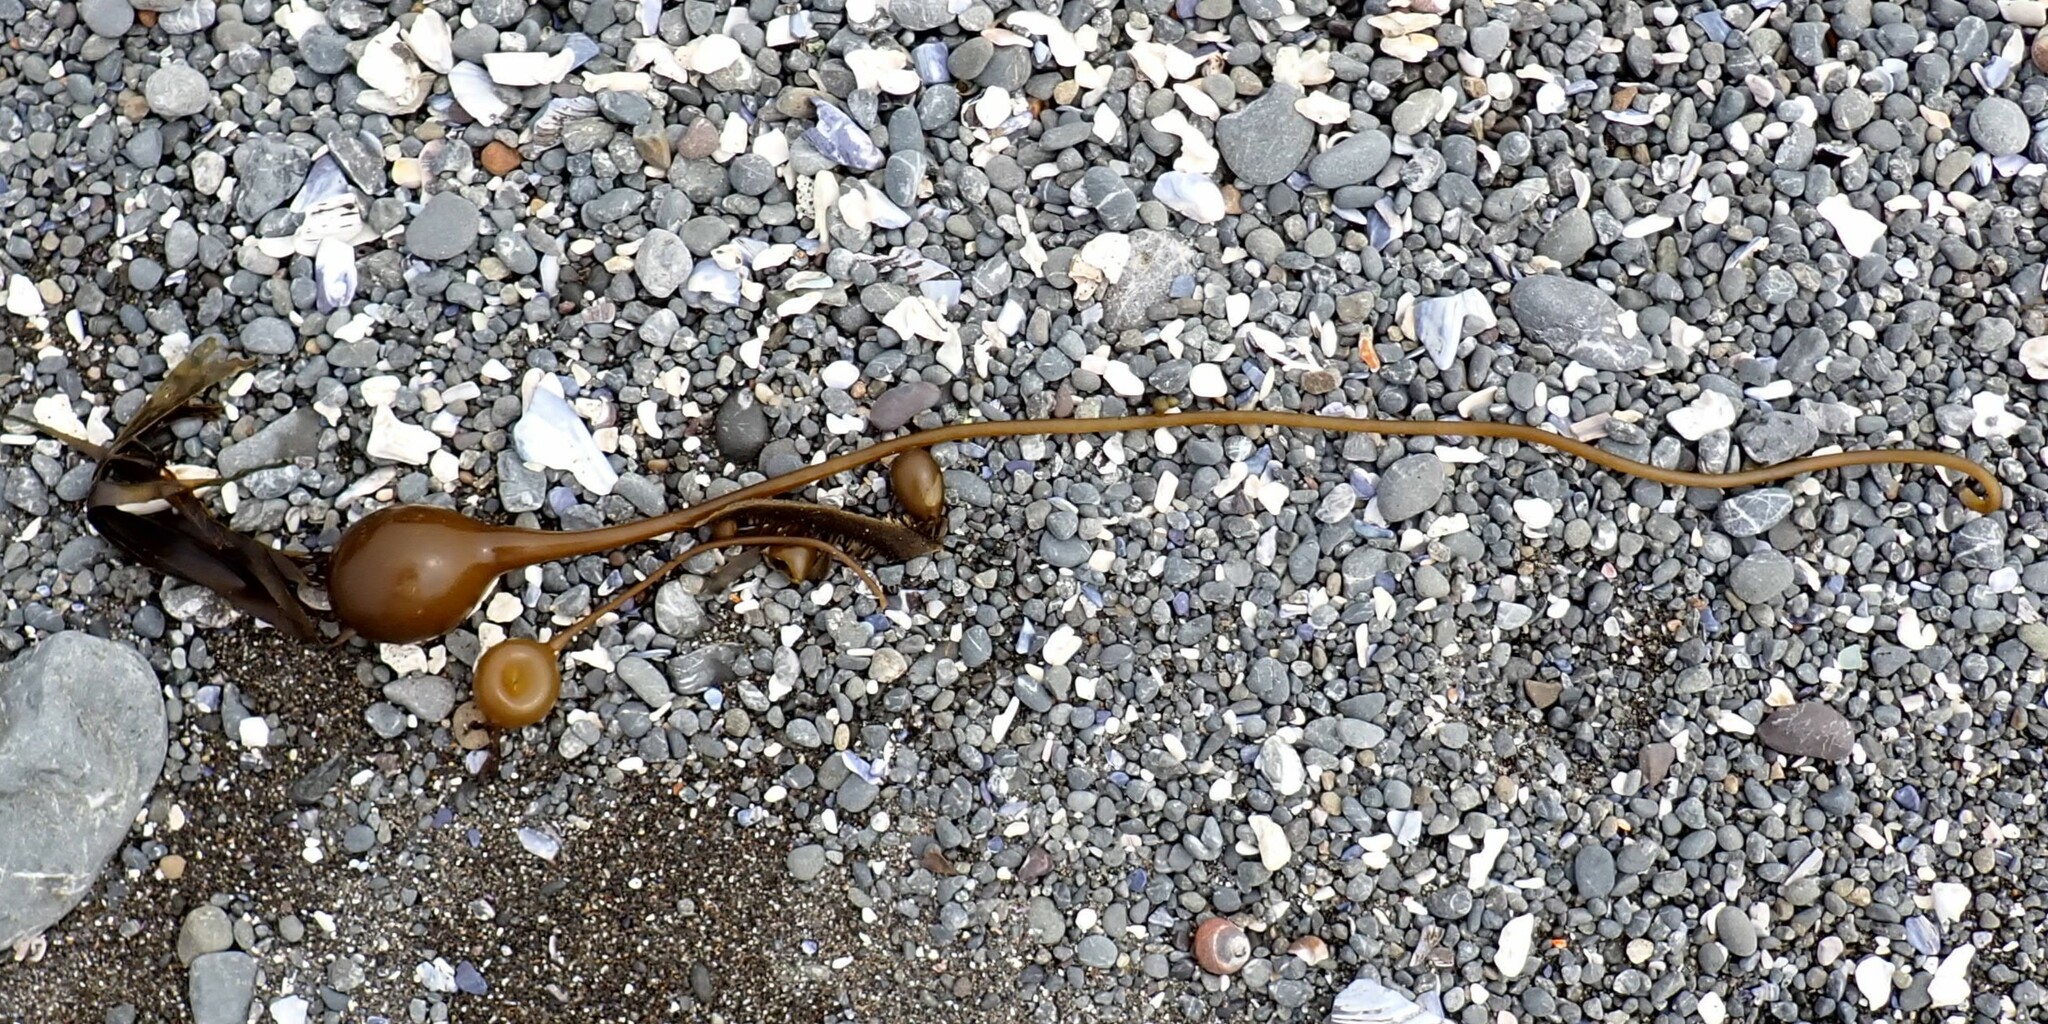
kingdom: Chromista
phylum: Ochrophyta
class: Phaeophyceae
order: Laminariales
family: Laminariaceae
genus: Nereocystis
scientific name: Nereocystis luetkeana
